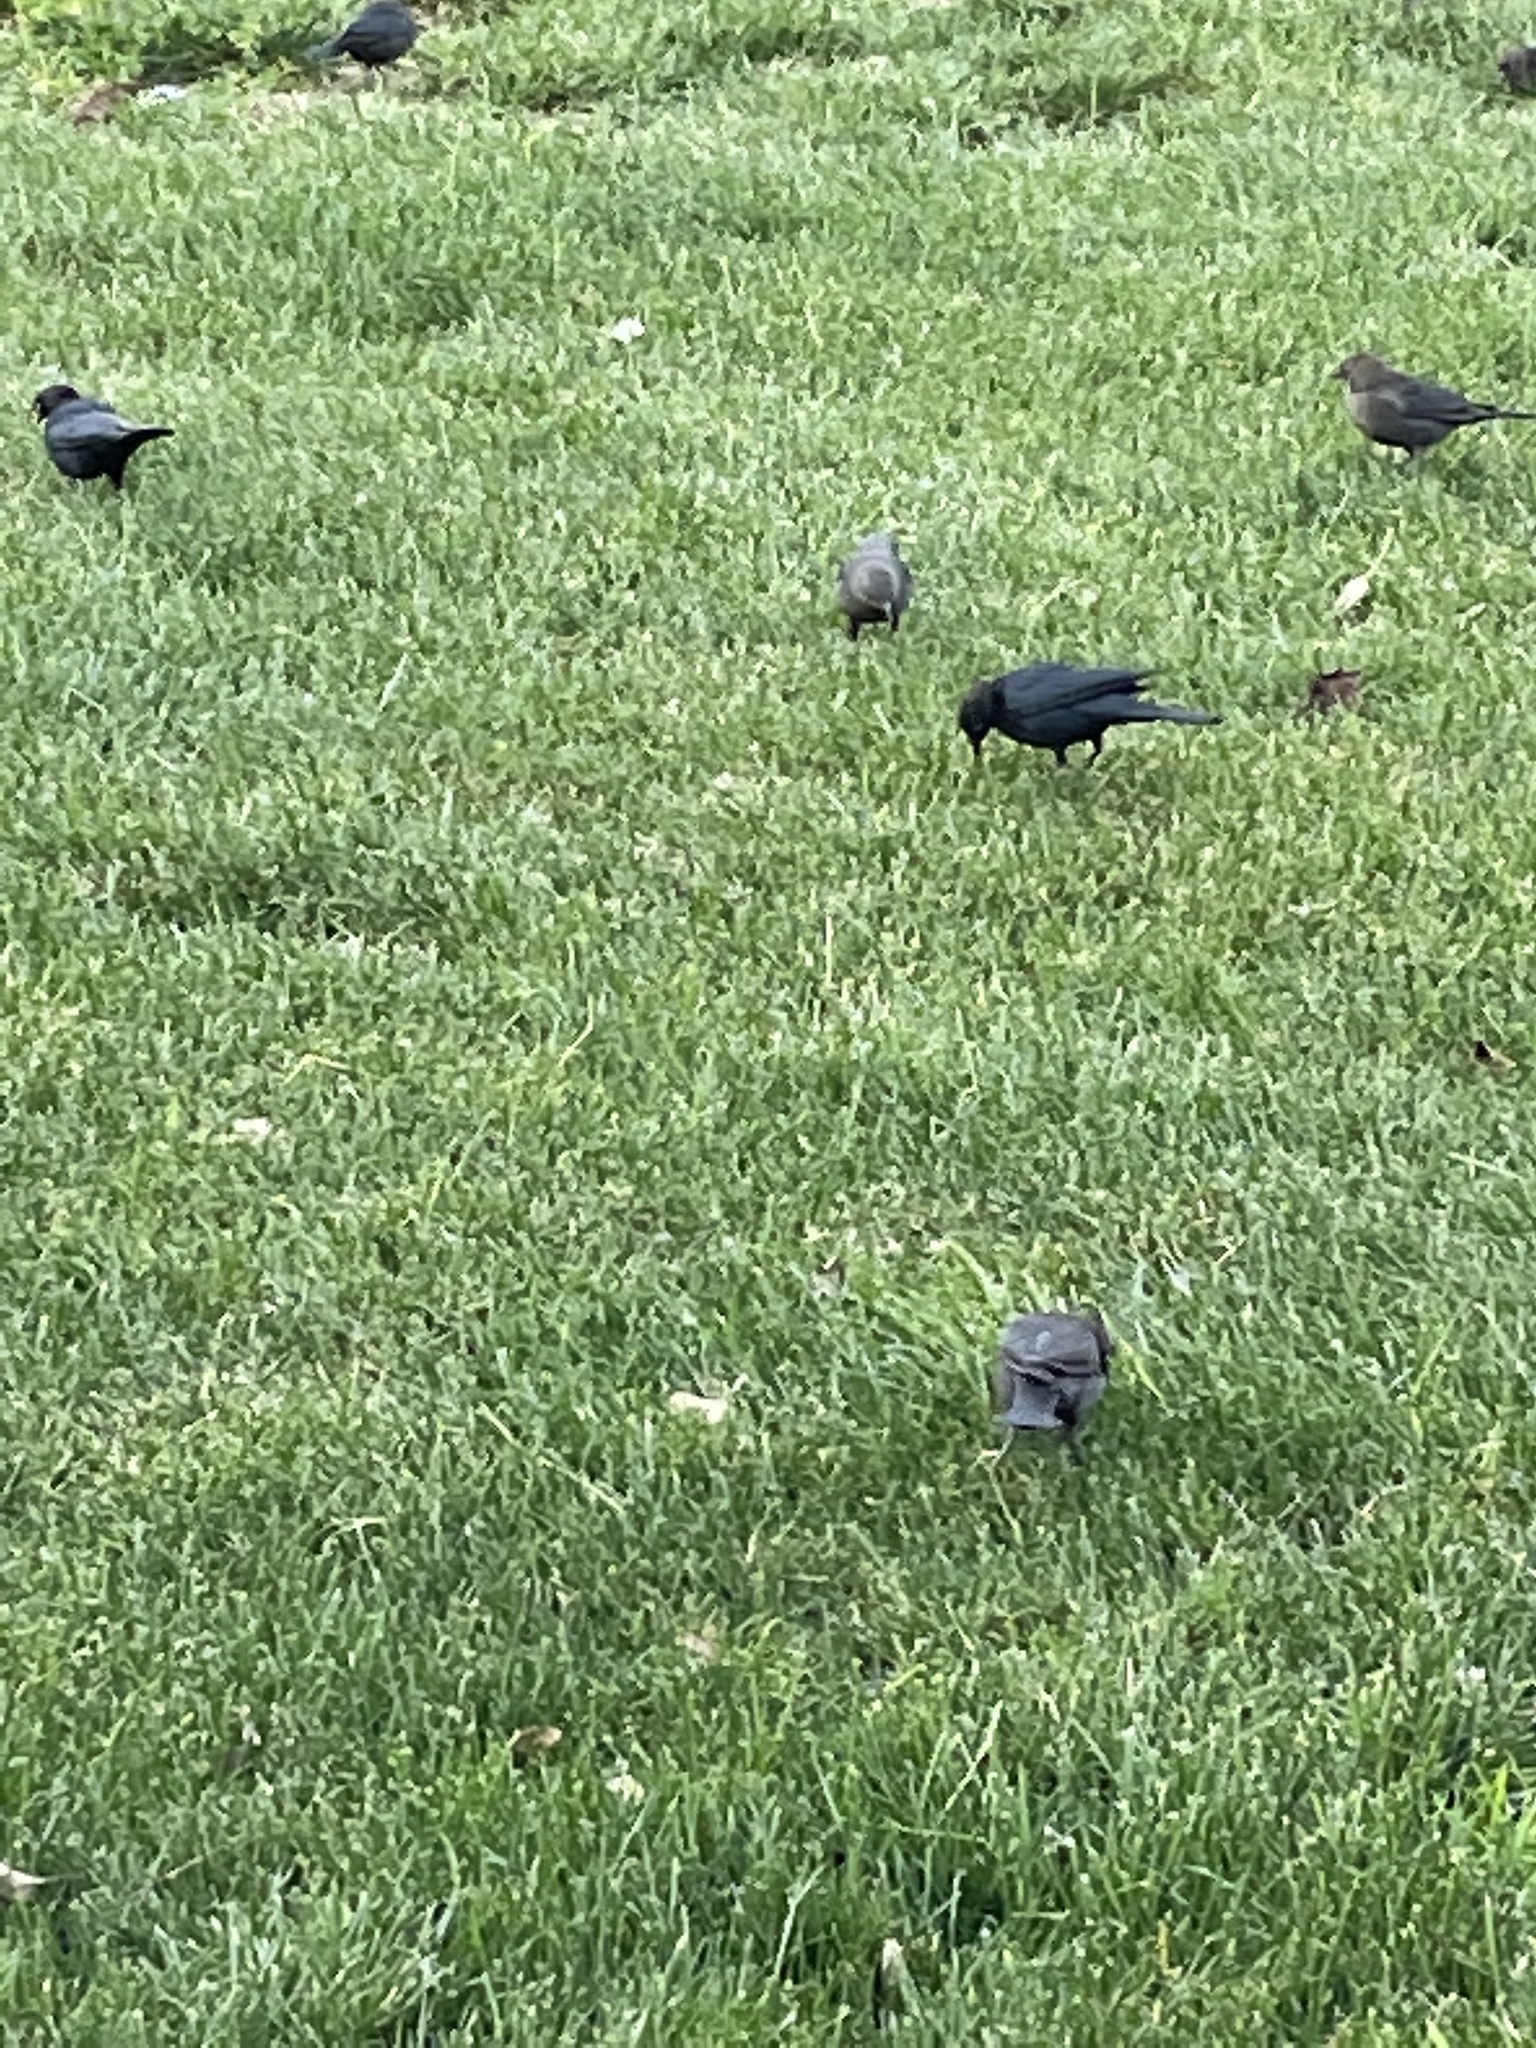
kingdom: Animalia
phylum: Chordata
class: Aves
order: Passeriformes
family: Icteridae
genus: Euphagus
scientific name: Euphagus cyanocephalus
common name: Brewer's blackbird
